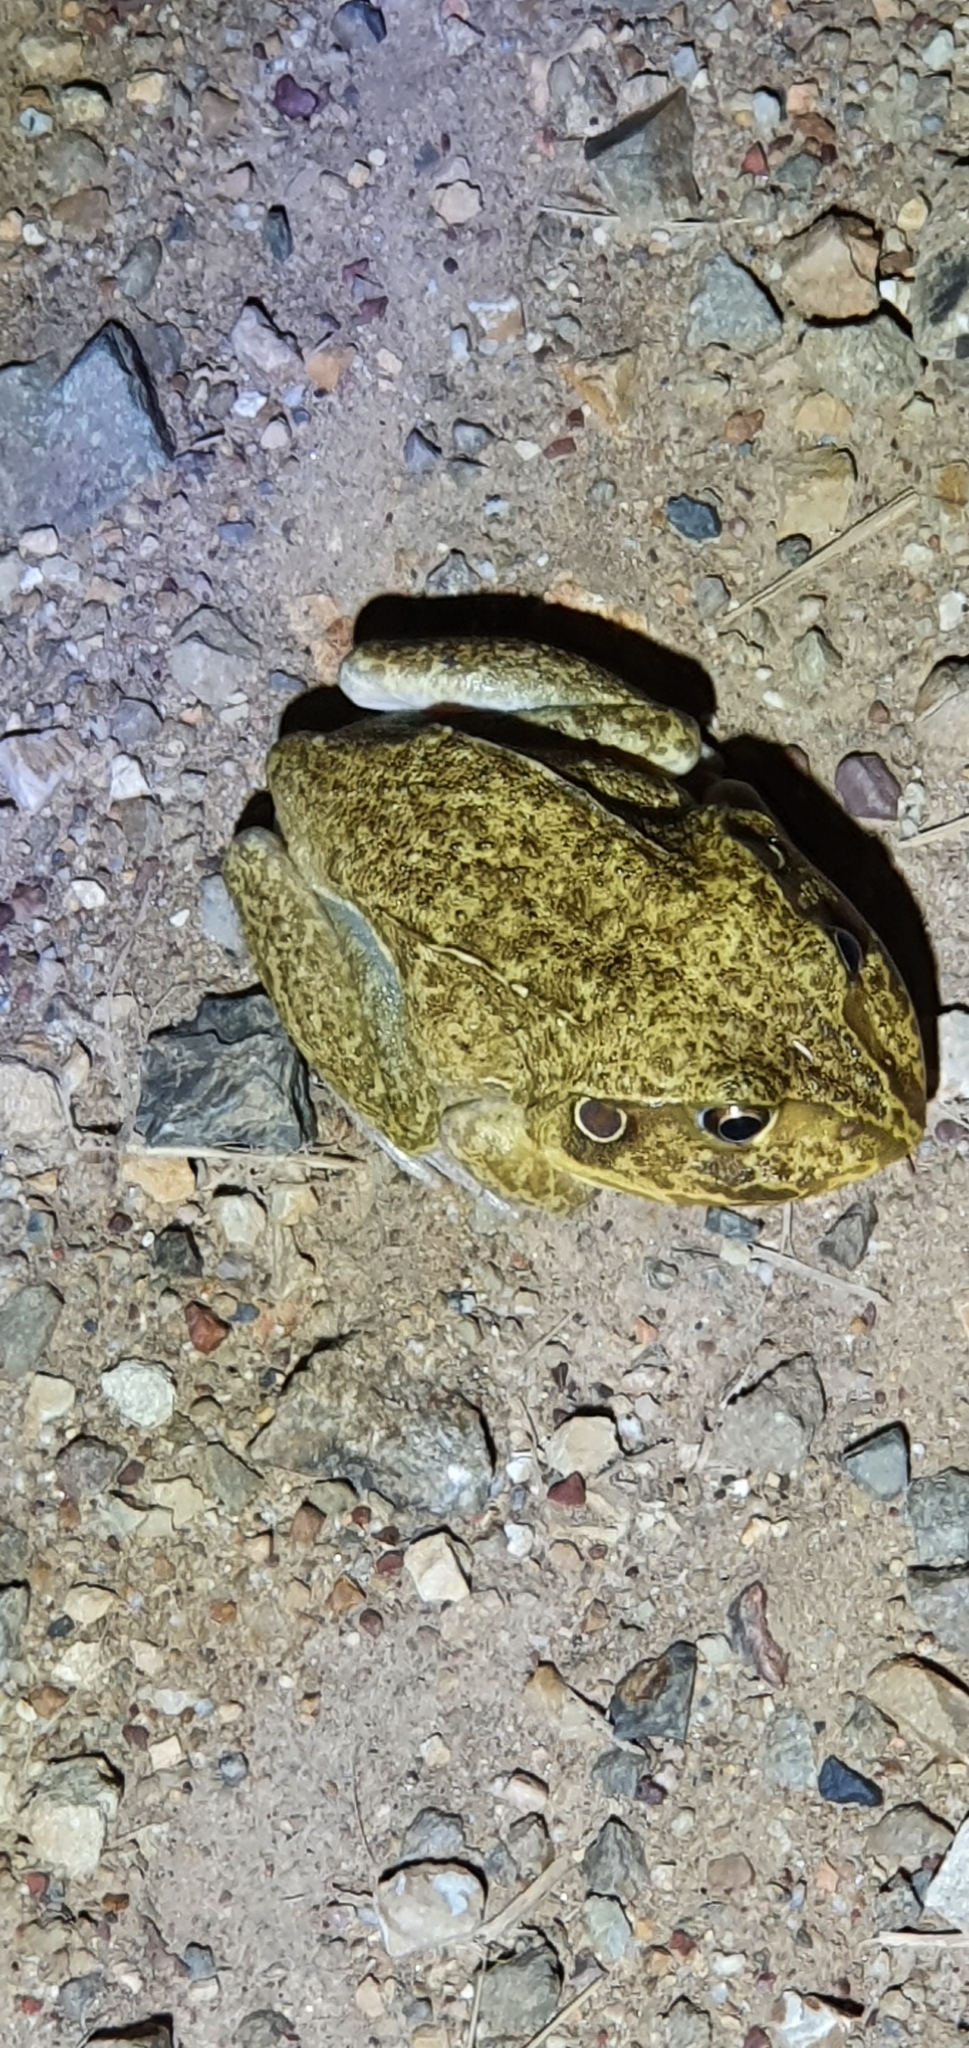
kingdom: Animalia
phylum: Chordata
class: Amphibia
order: Anura
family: Pelodryadidae
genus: Ranoidea
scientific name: Ranoidea novaehollandiae
